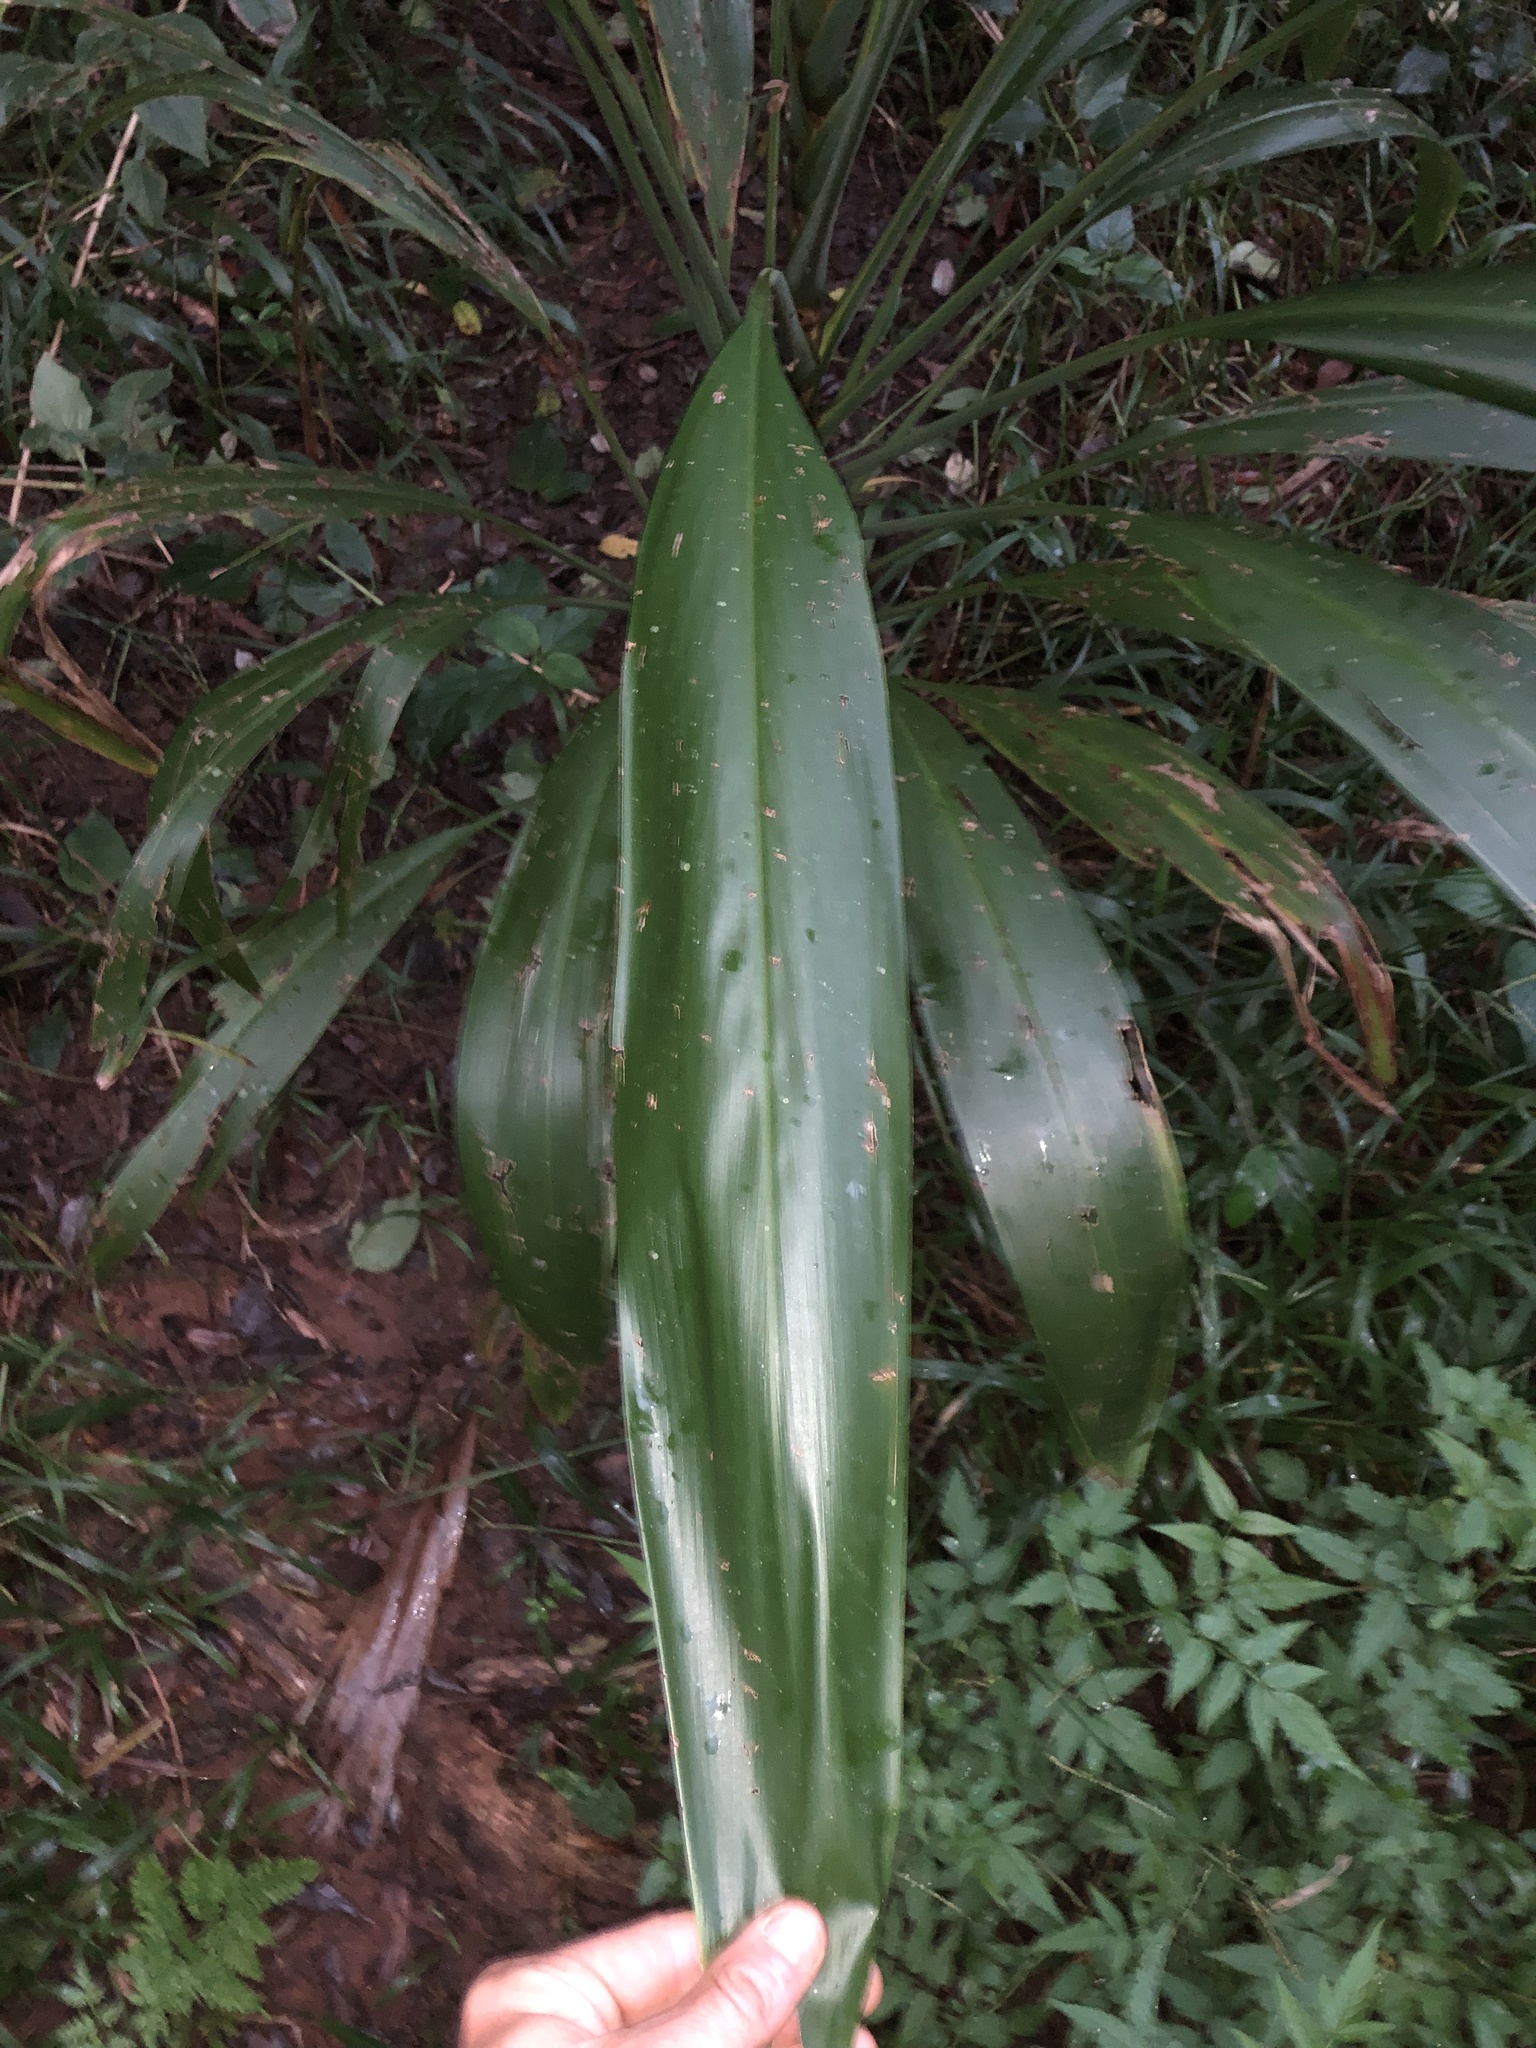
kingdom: Plantae
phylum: Tracheophyta
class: Liliopsida
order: Asparagales
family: Asparagaceae
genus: Cordyline
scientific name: Cordyline petiolaris
